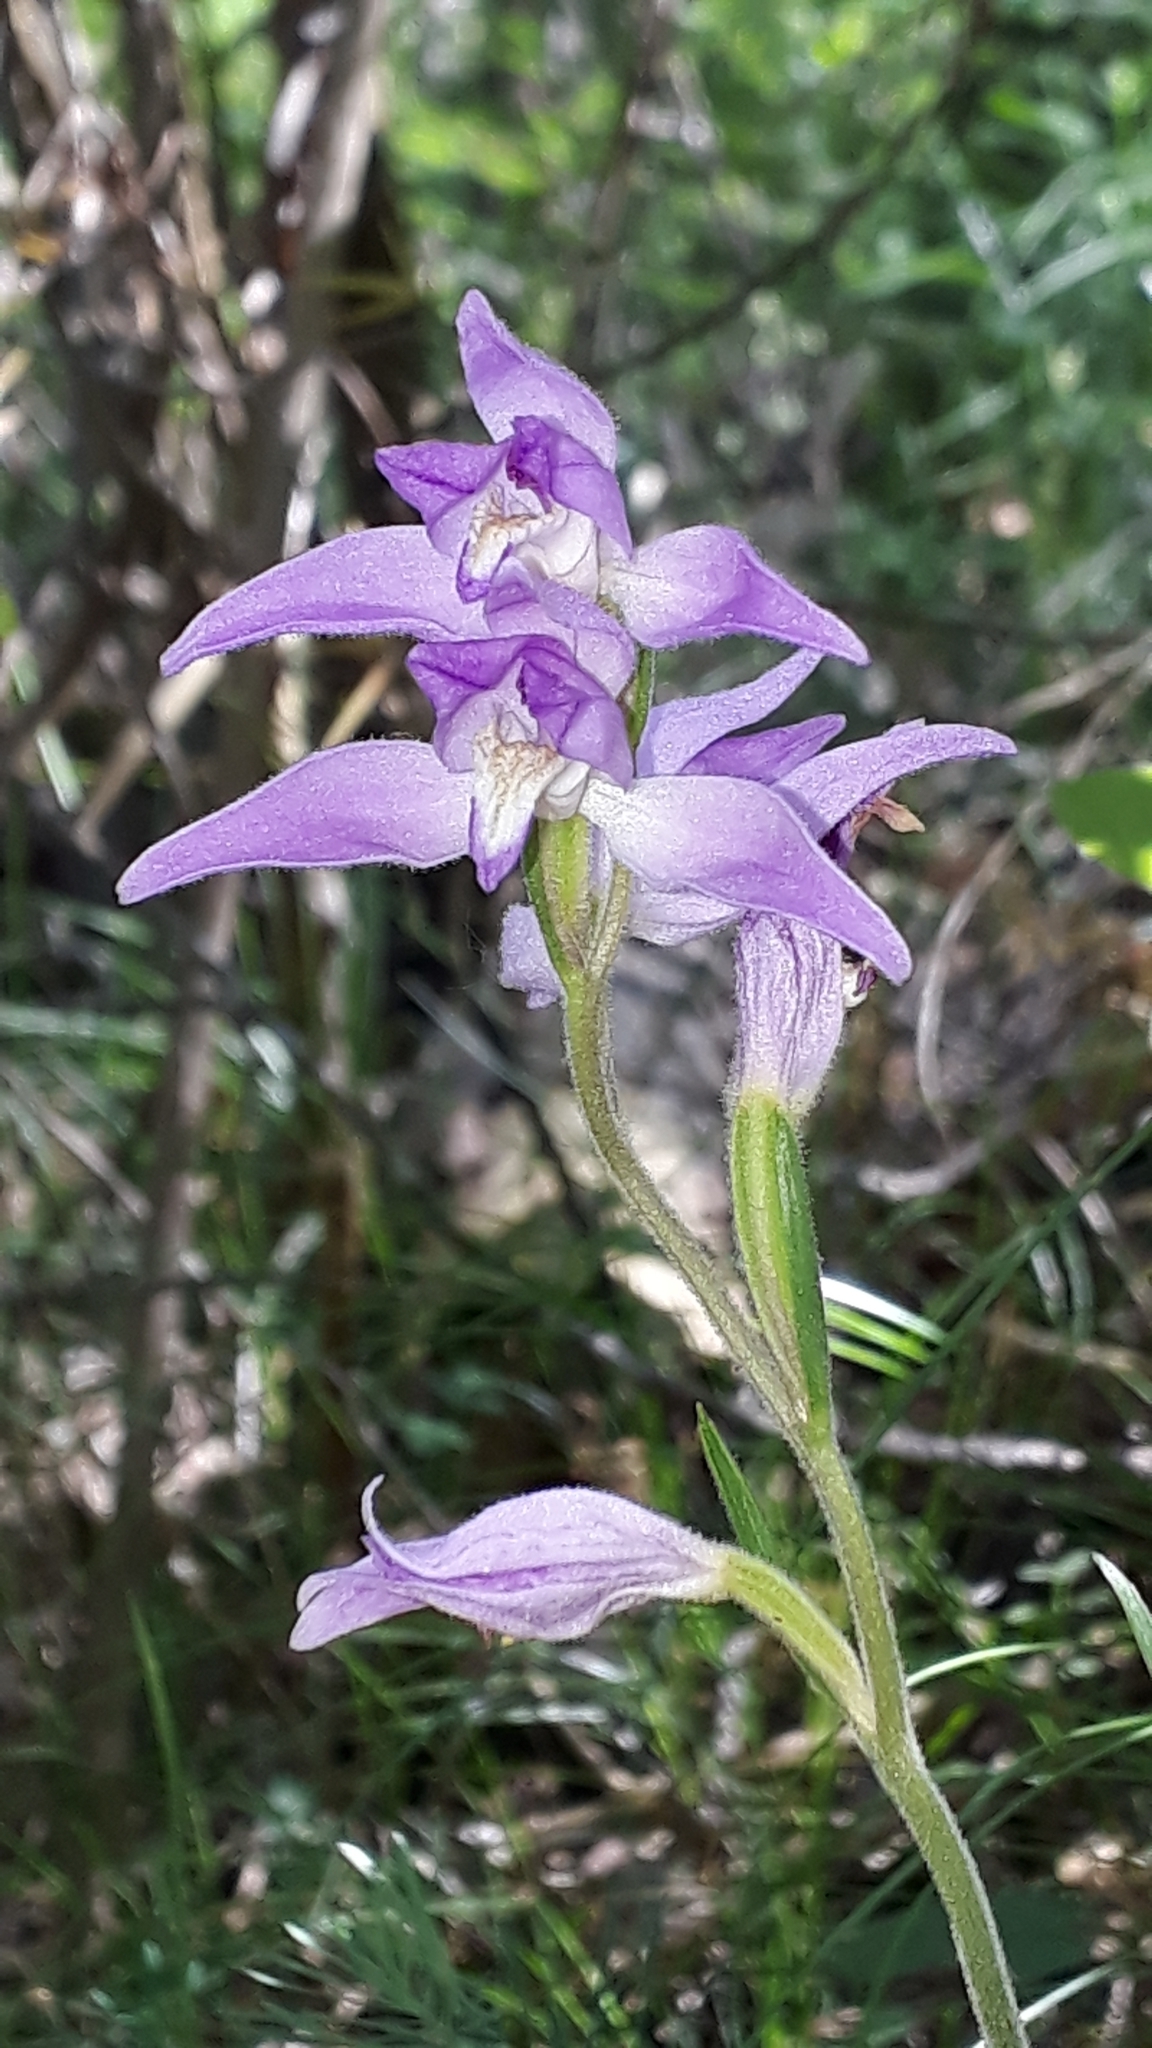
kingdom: Plantae
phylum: Tracheophyta
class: Liliopsida
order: Asparagales
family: Orchidaceae
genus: Cephalanthera
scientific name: Cephalanthera rubra
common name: Red helleborine
